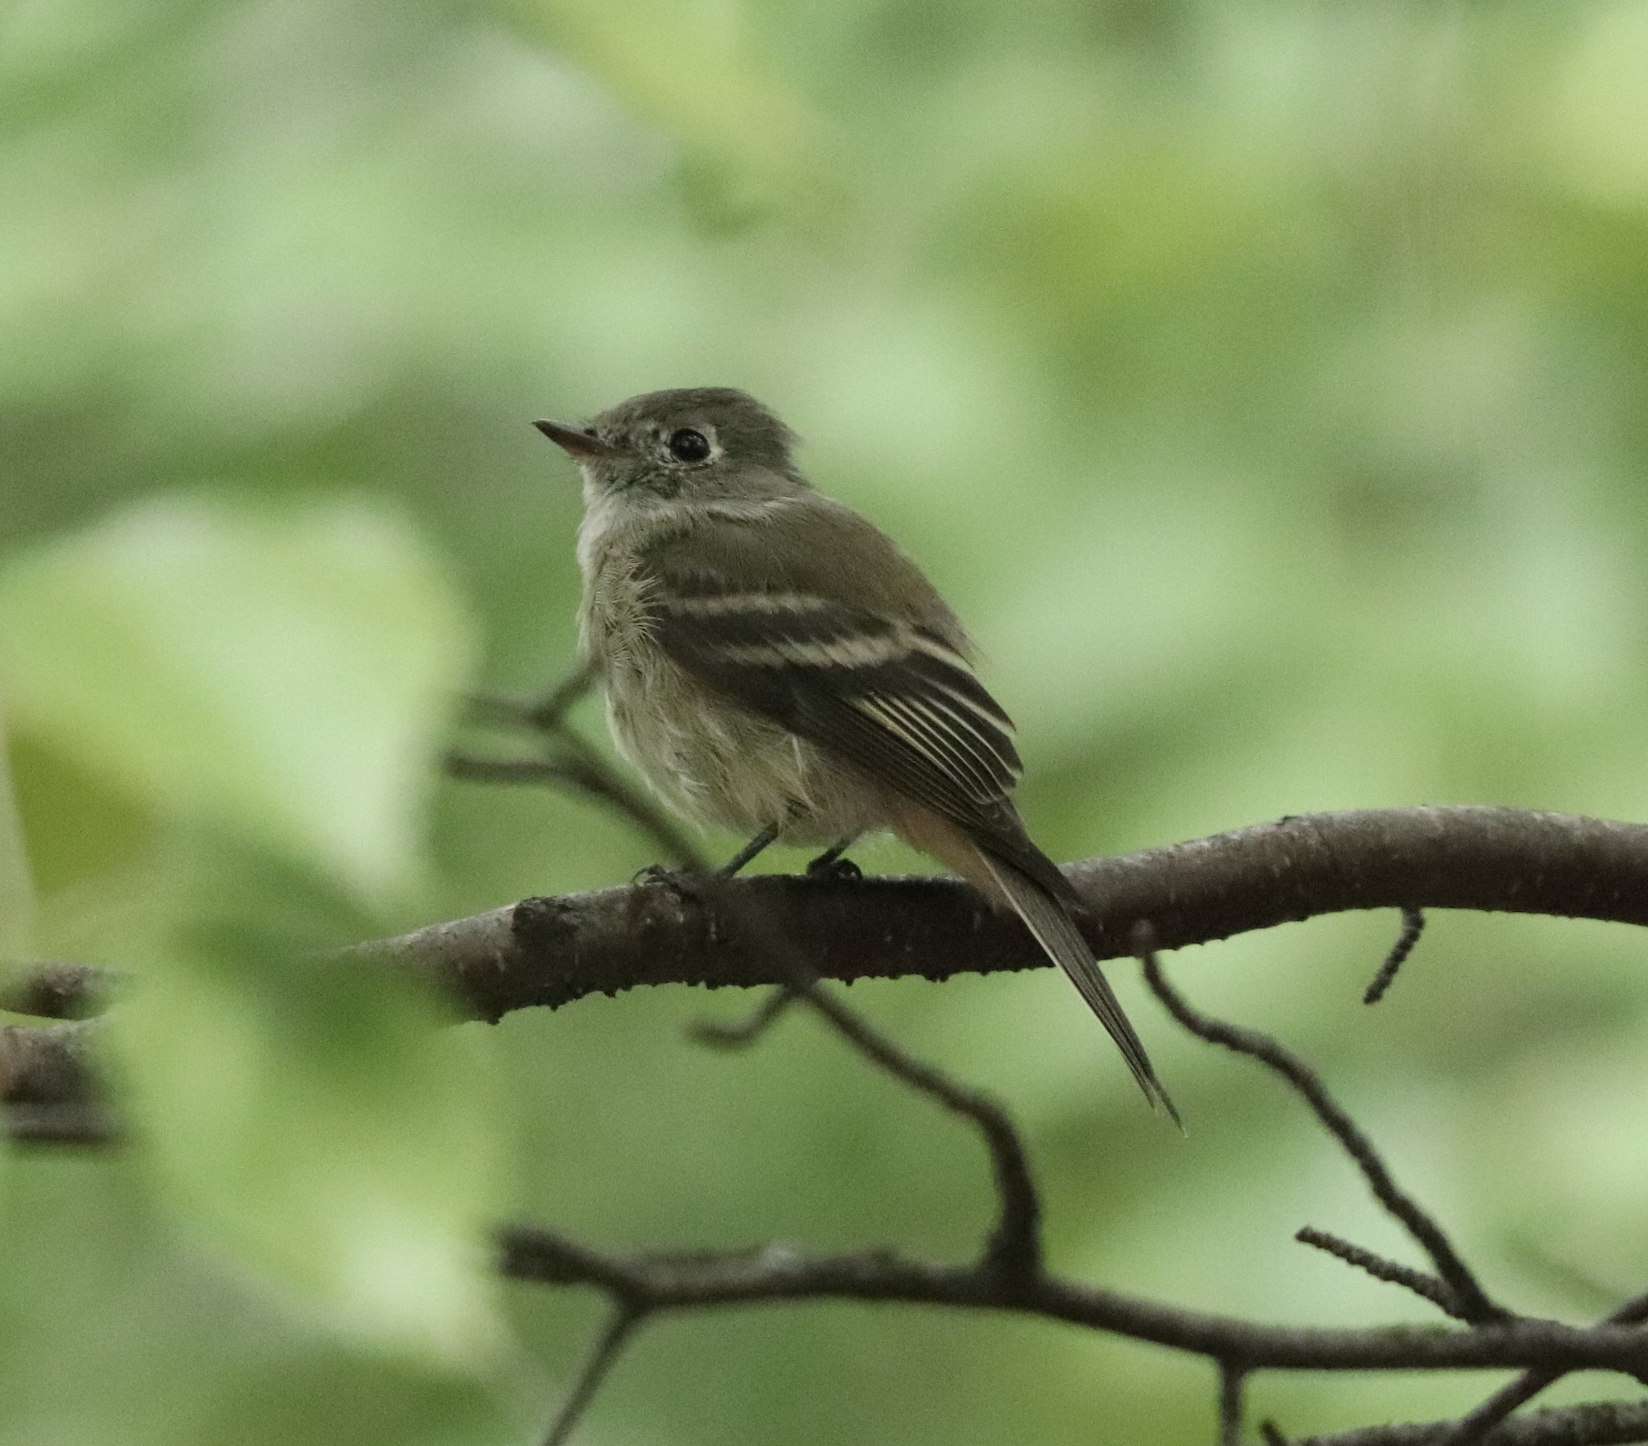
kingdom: Animalia
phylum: Chordata
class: Aves
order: Passeriformes
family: Tyrannidae
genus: Empidonax
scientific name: Empidonax hammondii
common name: Hammond's flycatcher
